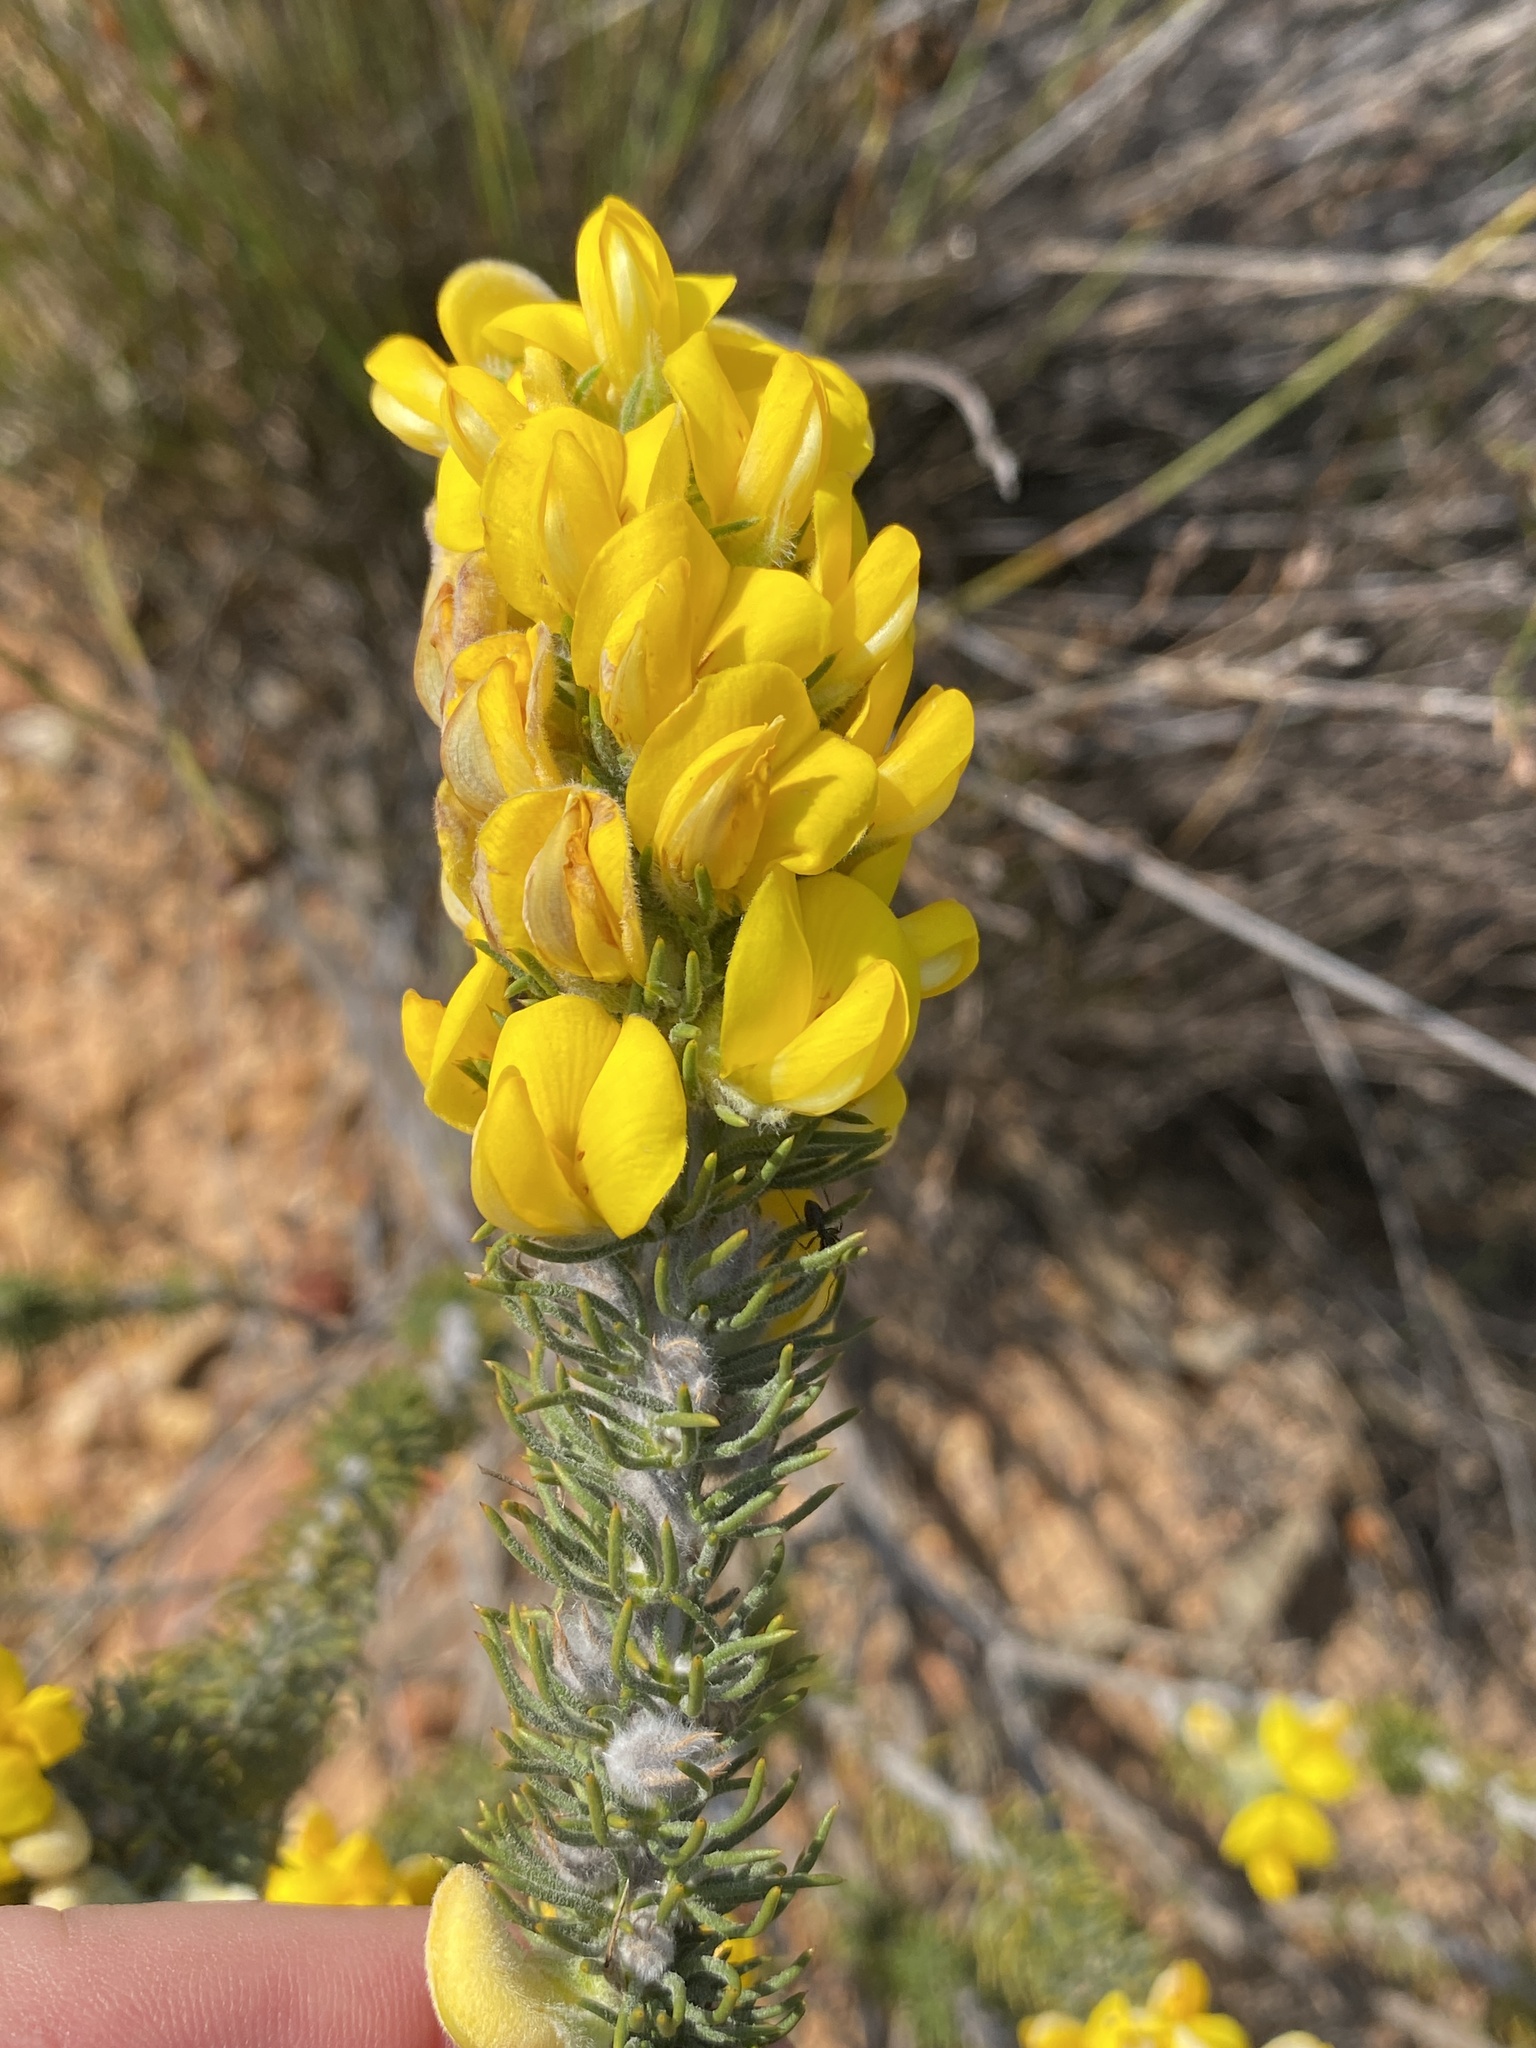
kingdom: Plantae
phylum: Tracheophyta
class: Magnoliopsida
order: Fabales
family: Fabaceae
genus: Aspalathus
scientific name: Aspalathus shawii
